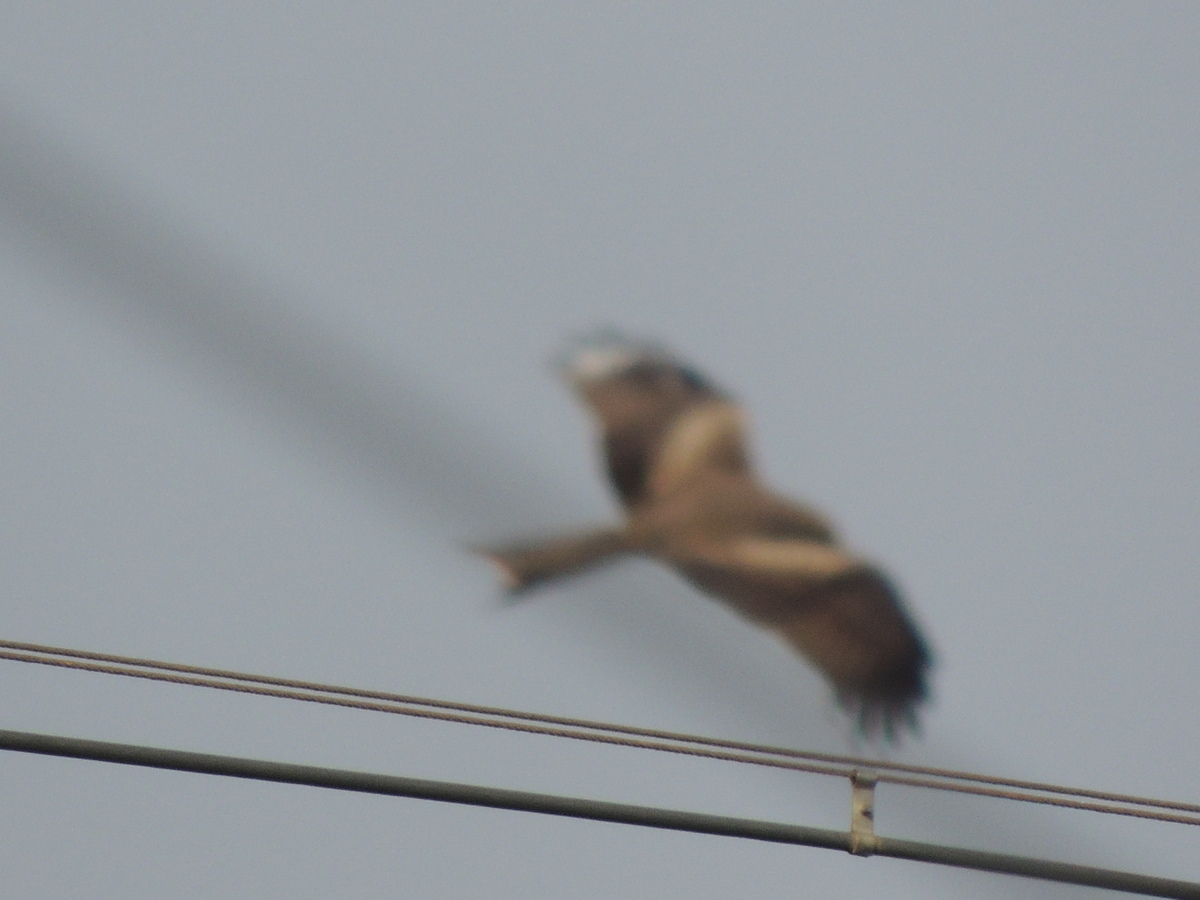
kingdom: Animalia
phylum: Chordata
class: Aves
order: Accipitriformes
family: Accipitridae
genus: Milvus
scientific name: Milvus migrans
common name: Black kite
